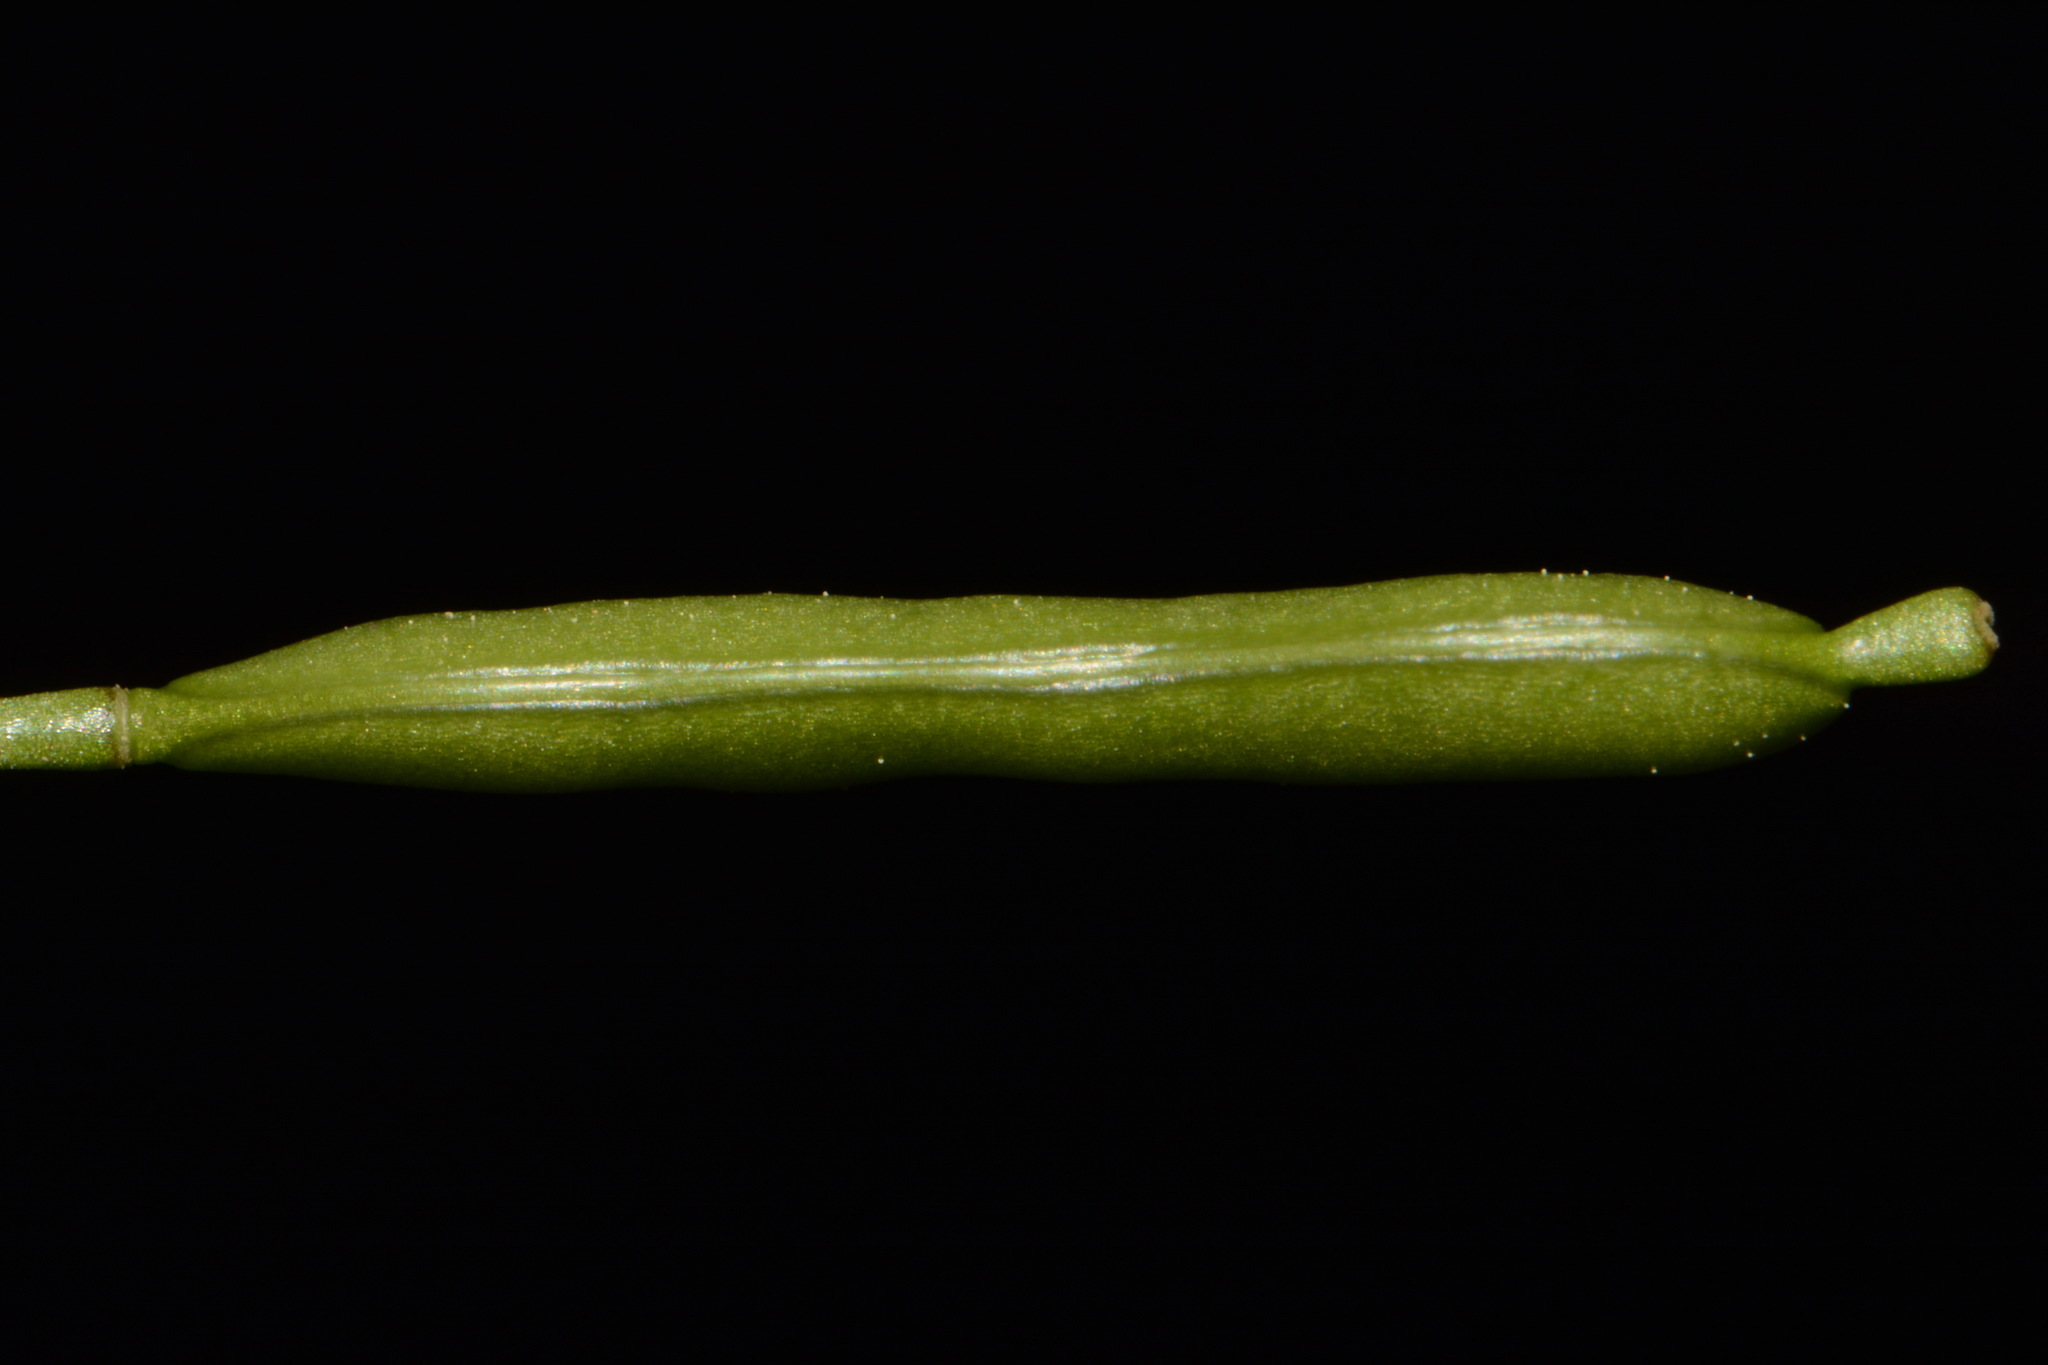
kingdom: Plantae
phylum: Tracheophyta
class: Magnoliopsida
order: Brassicales
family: Brassicaceae
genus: Leavenworthia
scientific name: Leavenworthia uniflora
